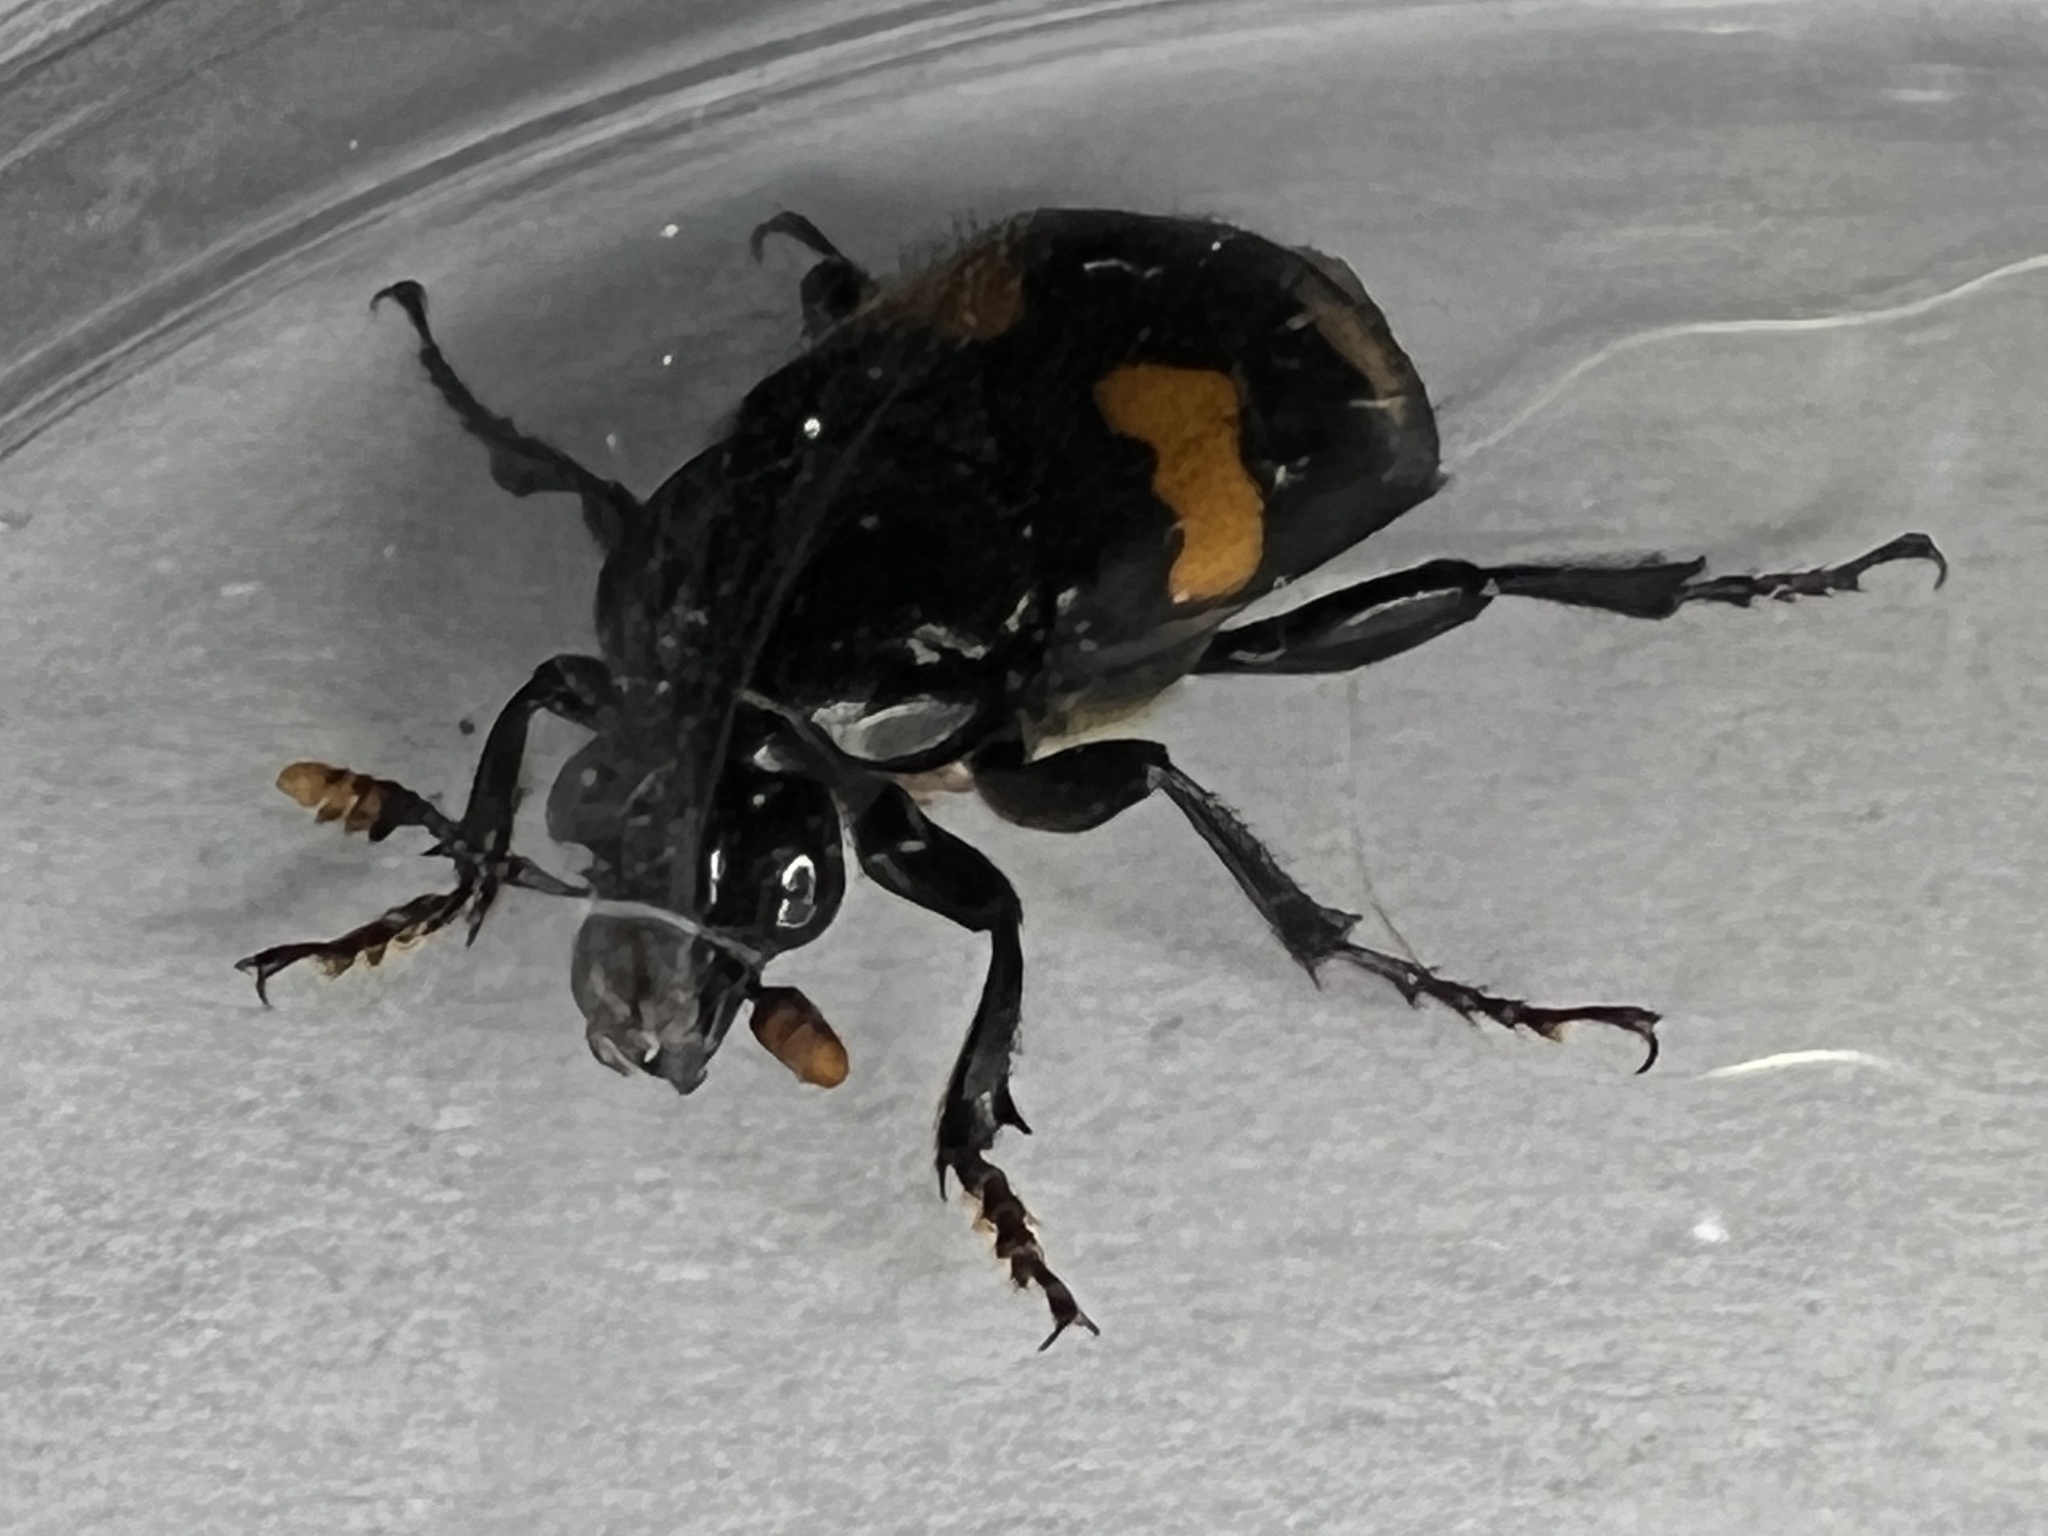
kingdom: Animalia
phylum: Arthropoda
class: Insecta
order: Coleoptera
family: Staphylinidae
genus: Nicrophorus
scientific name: Nicrophorus orbicollis
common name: Roundneck sexton beetle
